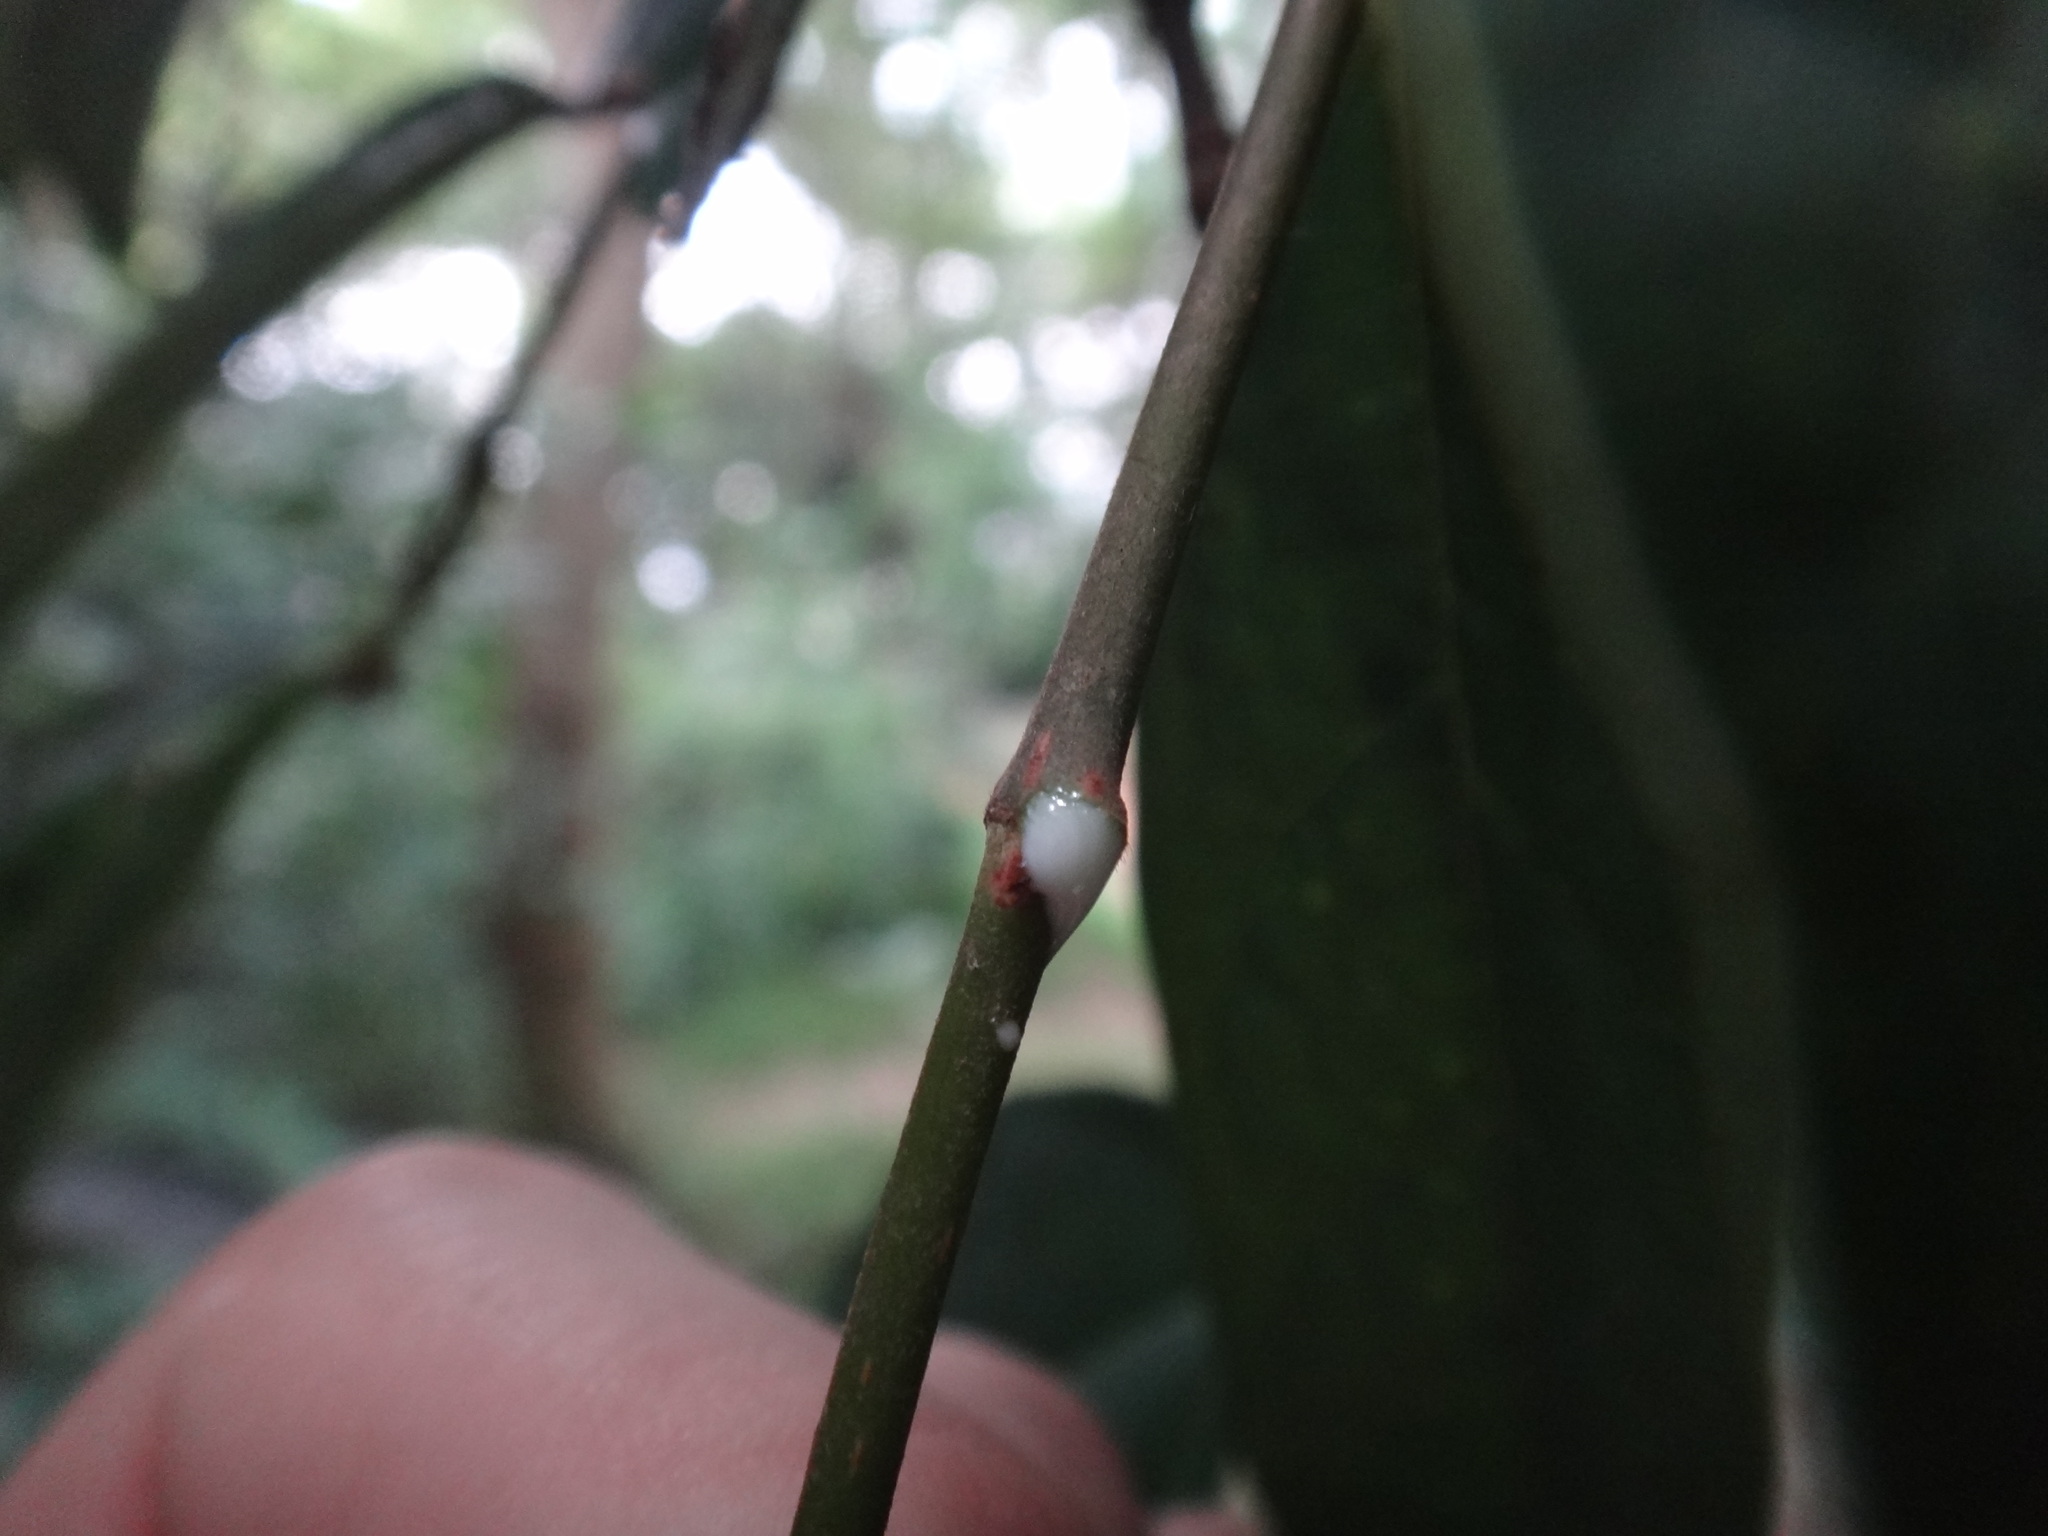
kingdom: Plantae
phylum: Tracheophyta
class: Magnoliopsida
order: Rosales
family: Moraceae
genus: Ficus
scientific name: Ficus sarmentosa
